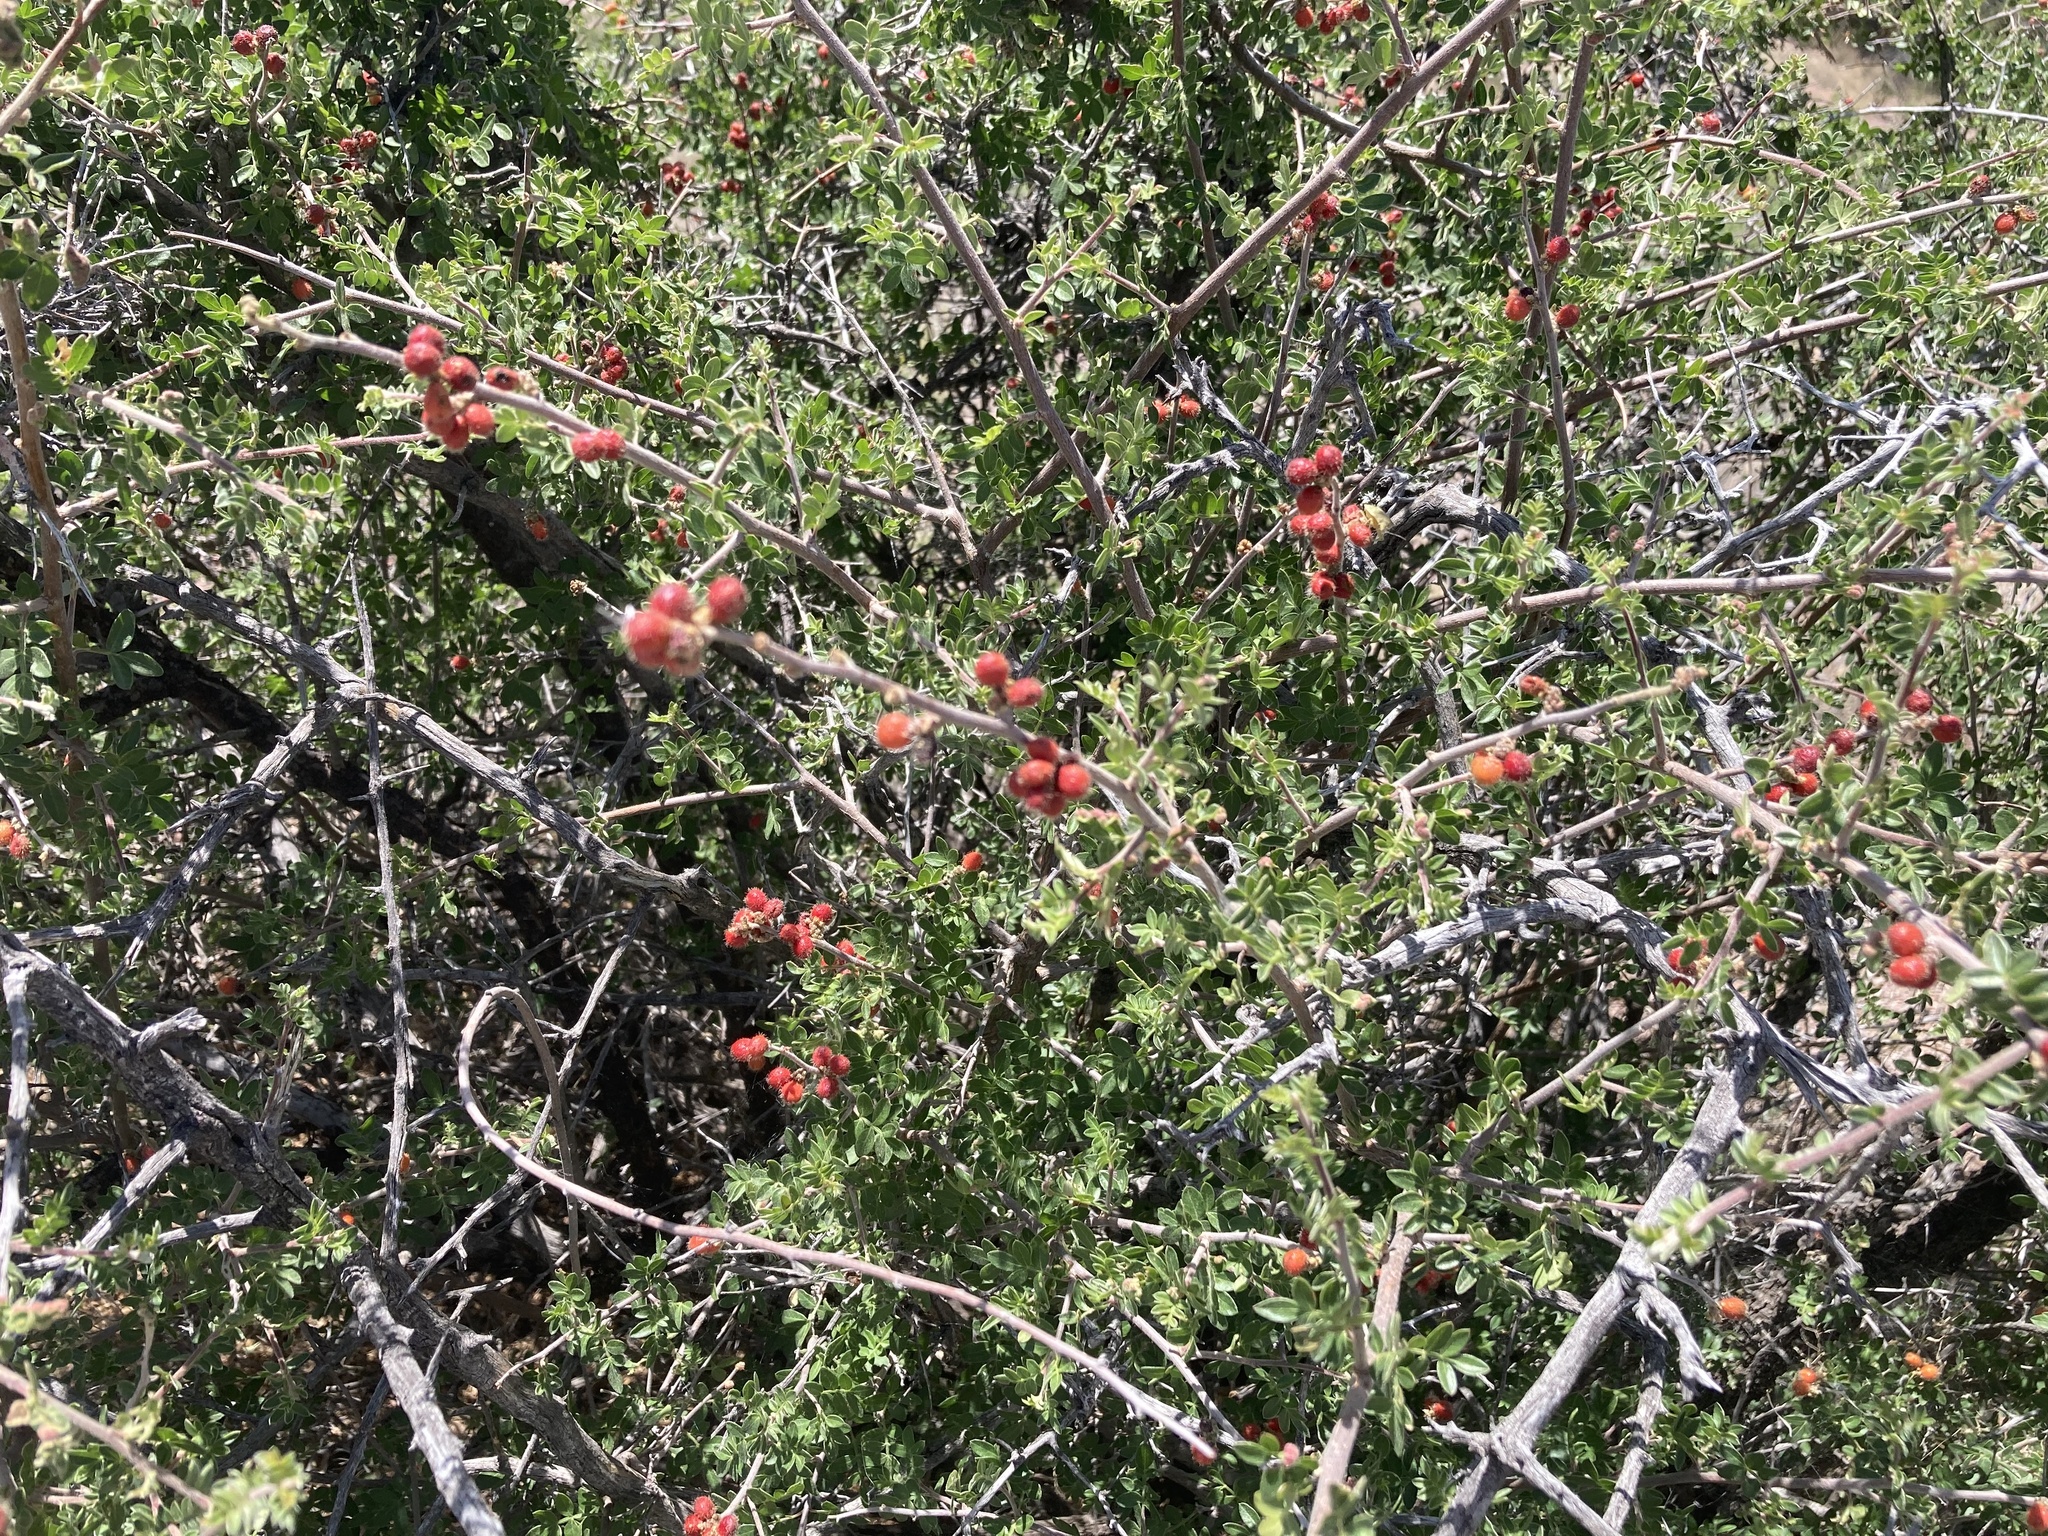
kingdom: Plantae
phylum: Tracheophyta
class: Magnoliopsida
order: Sapindales
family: Anacardiaceae
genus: Rhus
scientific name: Rhus microphylla
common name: Desert sumac
